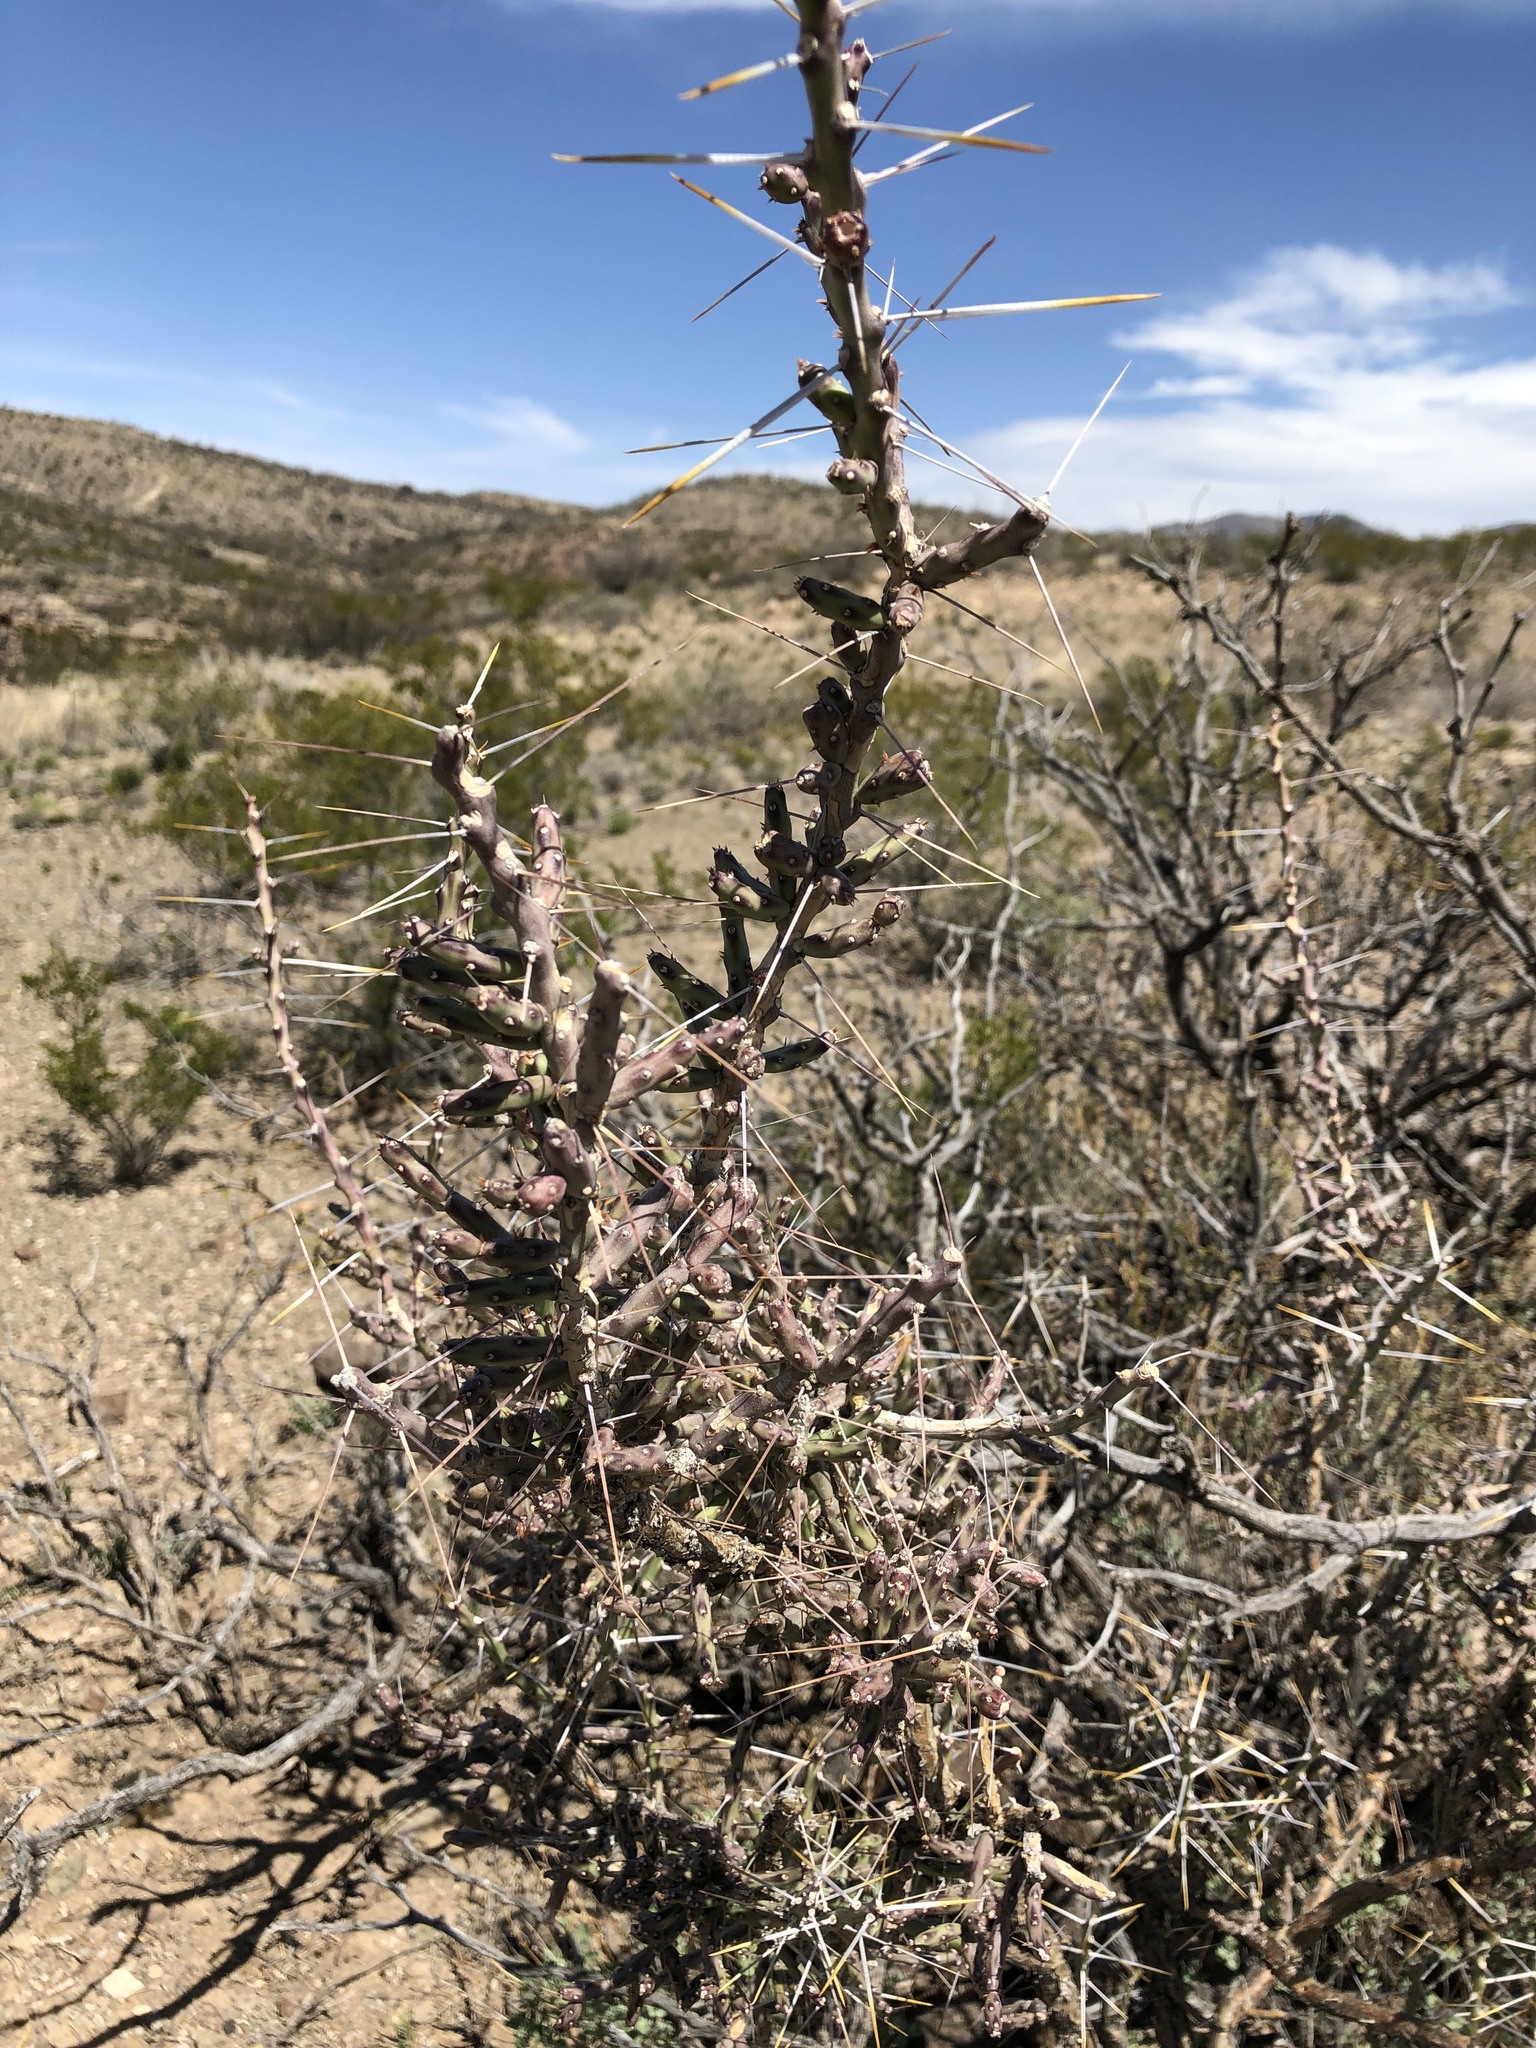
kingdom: Plantae
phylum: Tracheophyta
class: Magnoliopsida
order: Caryophyllales
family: Cactaceae
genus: Cylindropuntia
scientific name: Cylindropuntia leptocaulis
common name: Christmas cactus
